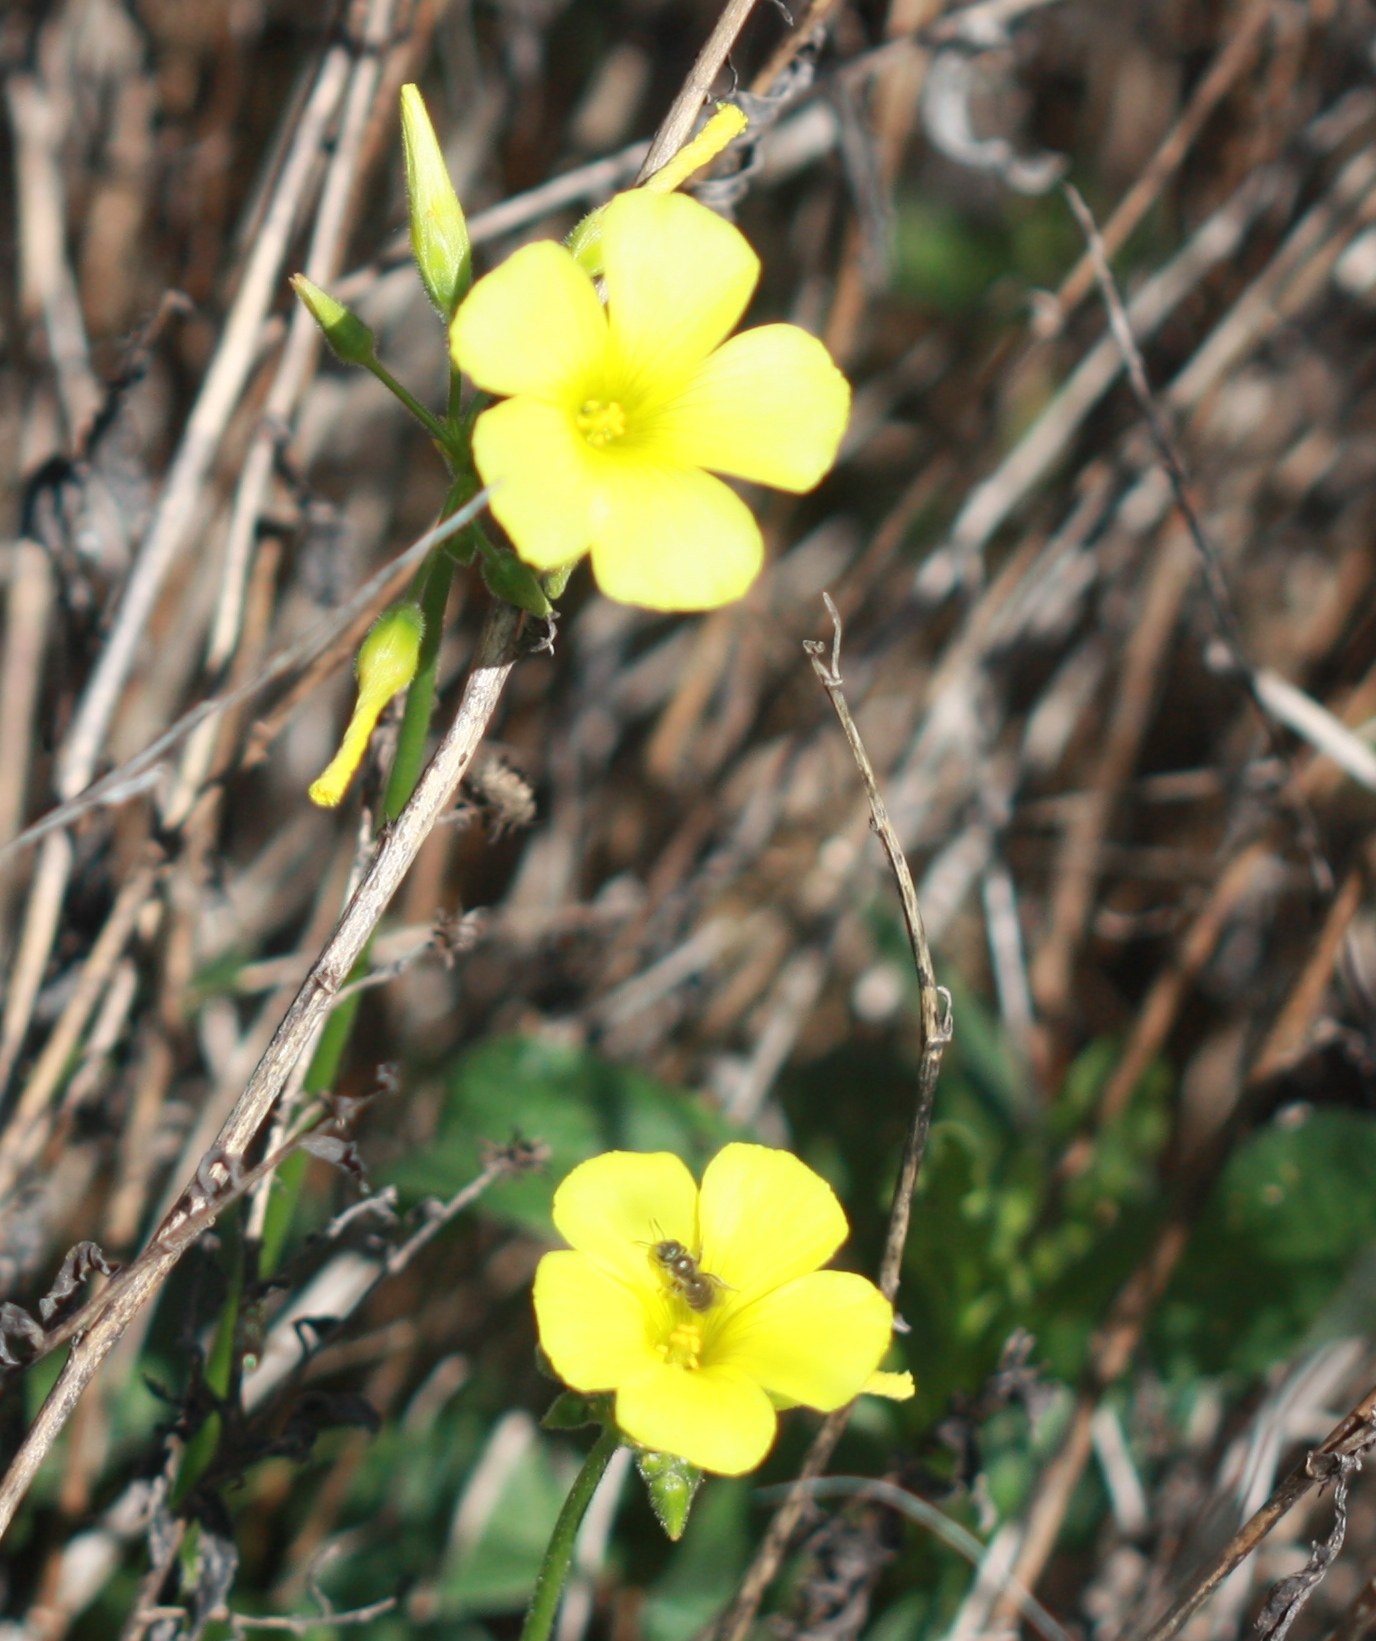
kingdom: Plantae
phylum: Tracheophyta
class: Magnoliopsida
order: Oxalidales
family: Oxalidaceae
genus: Oxalis
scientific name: Oxalis pes-caprae
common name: Bermuda-buttercup
